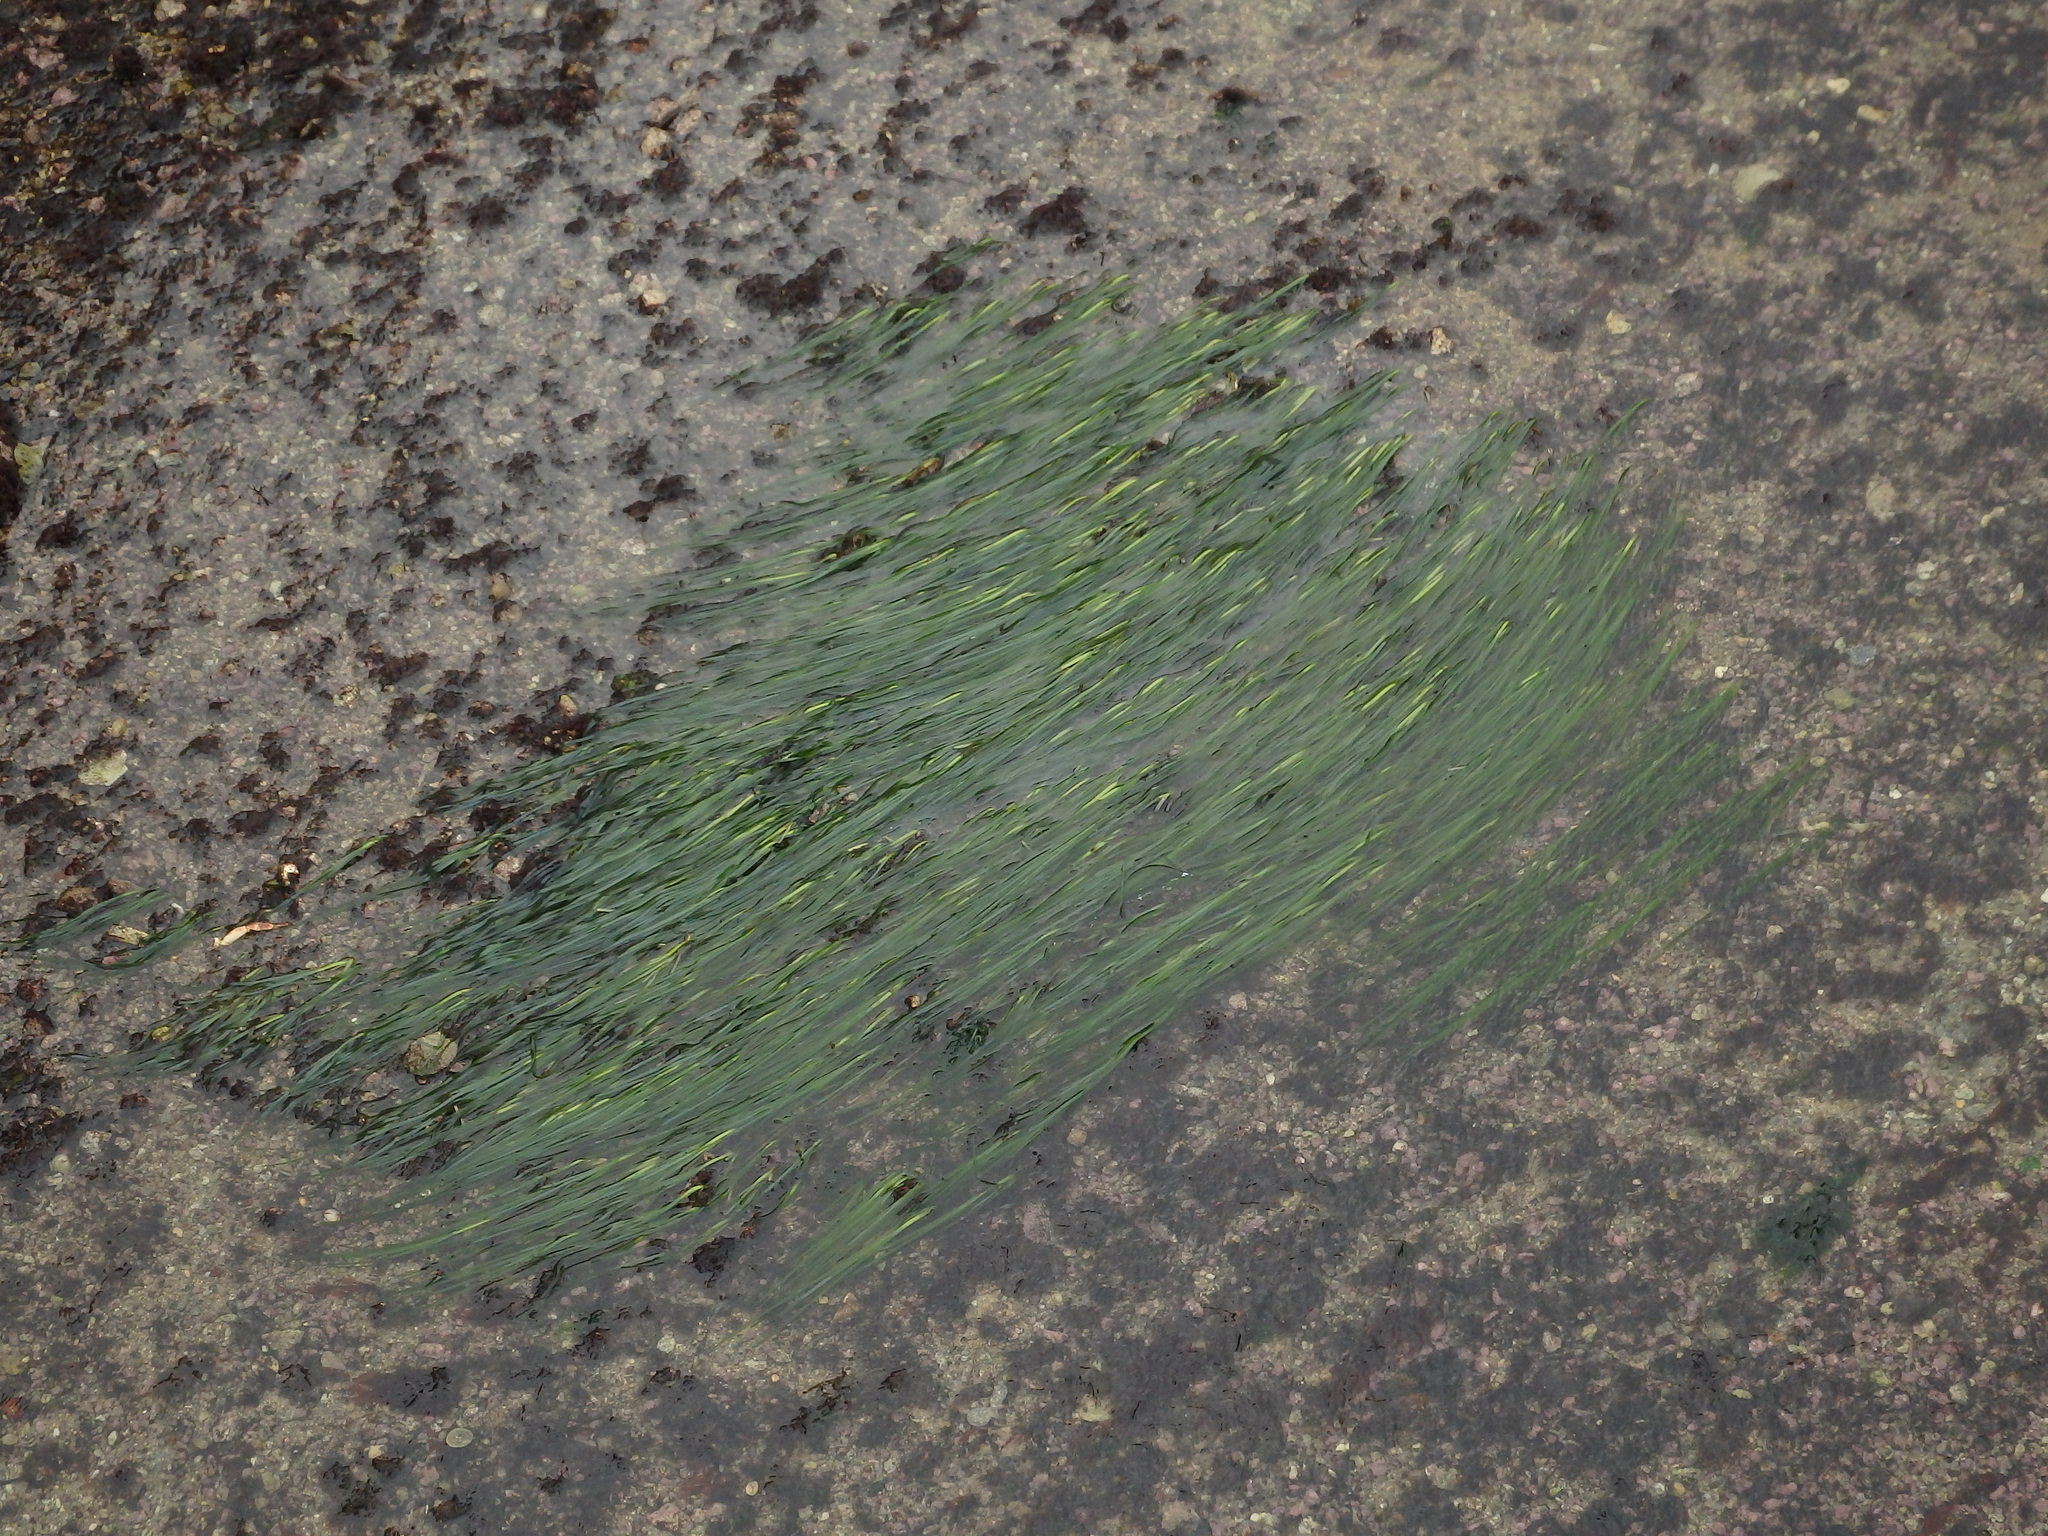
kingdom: Plantae
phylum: Tracheophyta
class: Liliopsida
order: Alismatales
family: Zosteraceae
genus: Zostera
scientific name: Zostera marina
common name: Eelgrass
